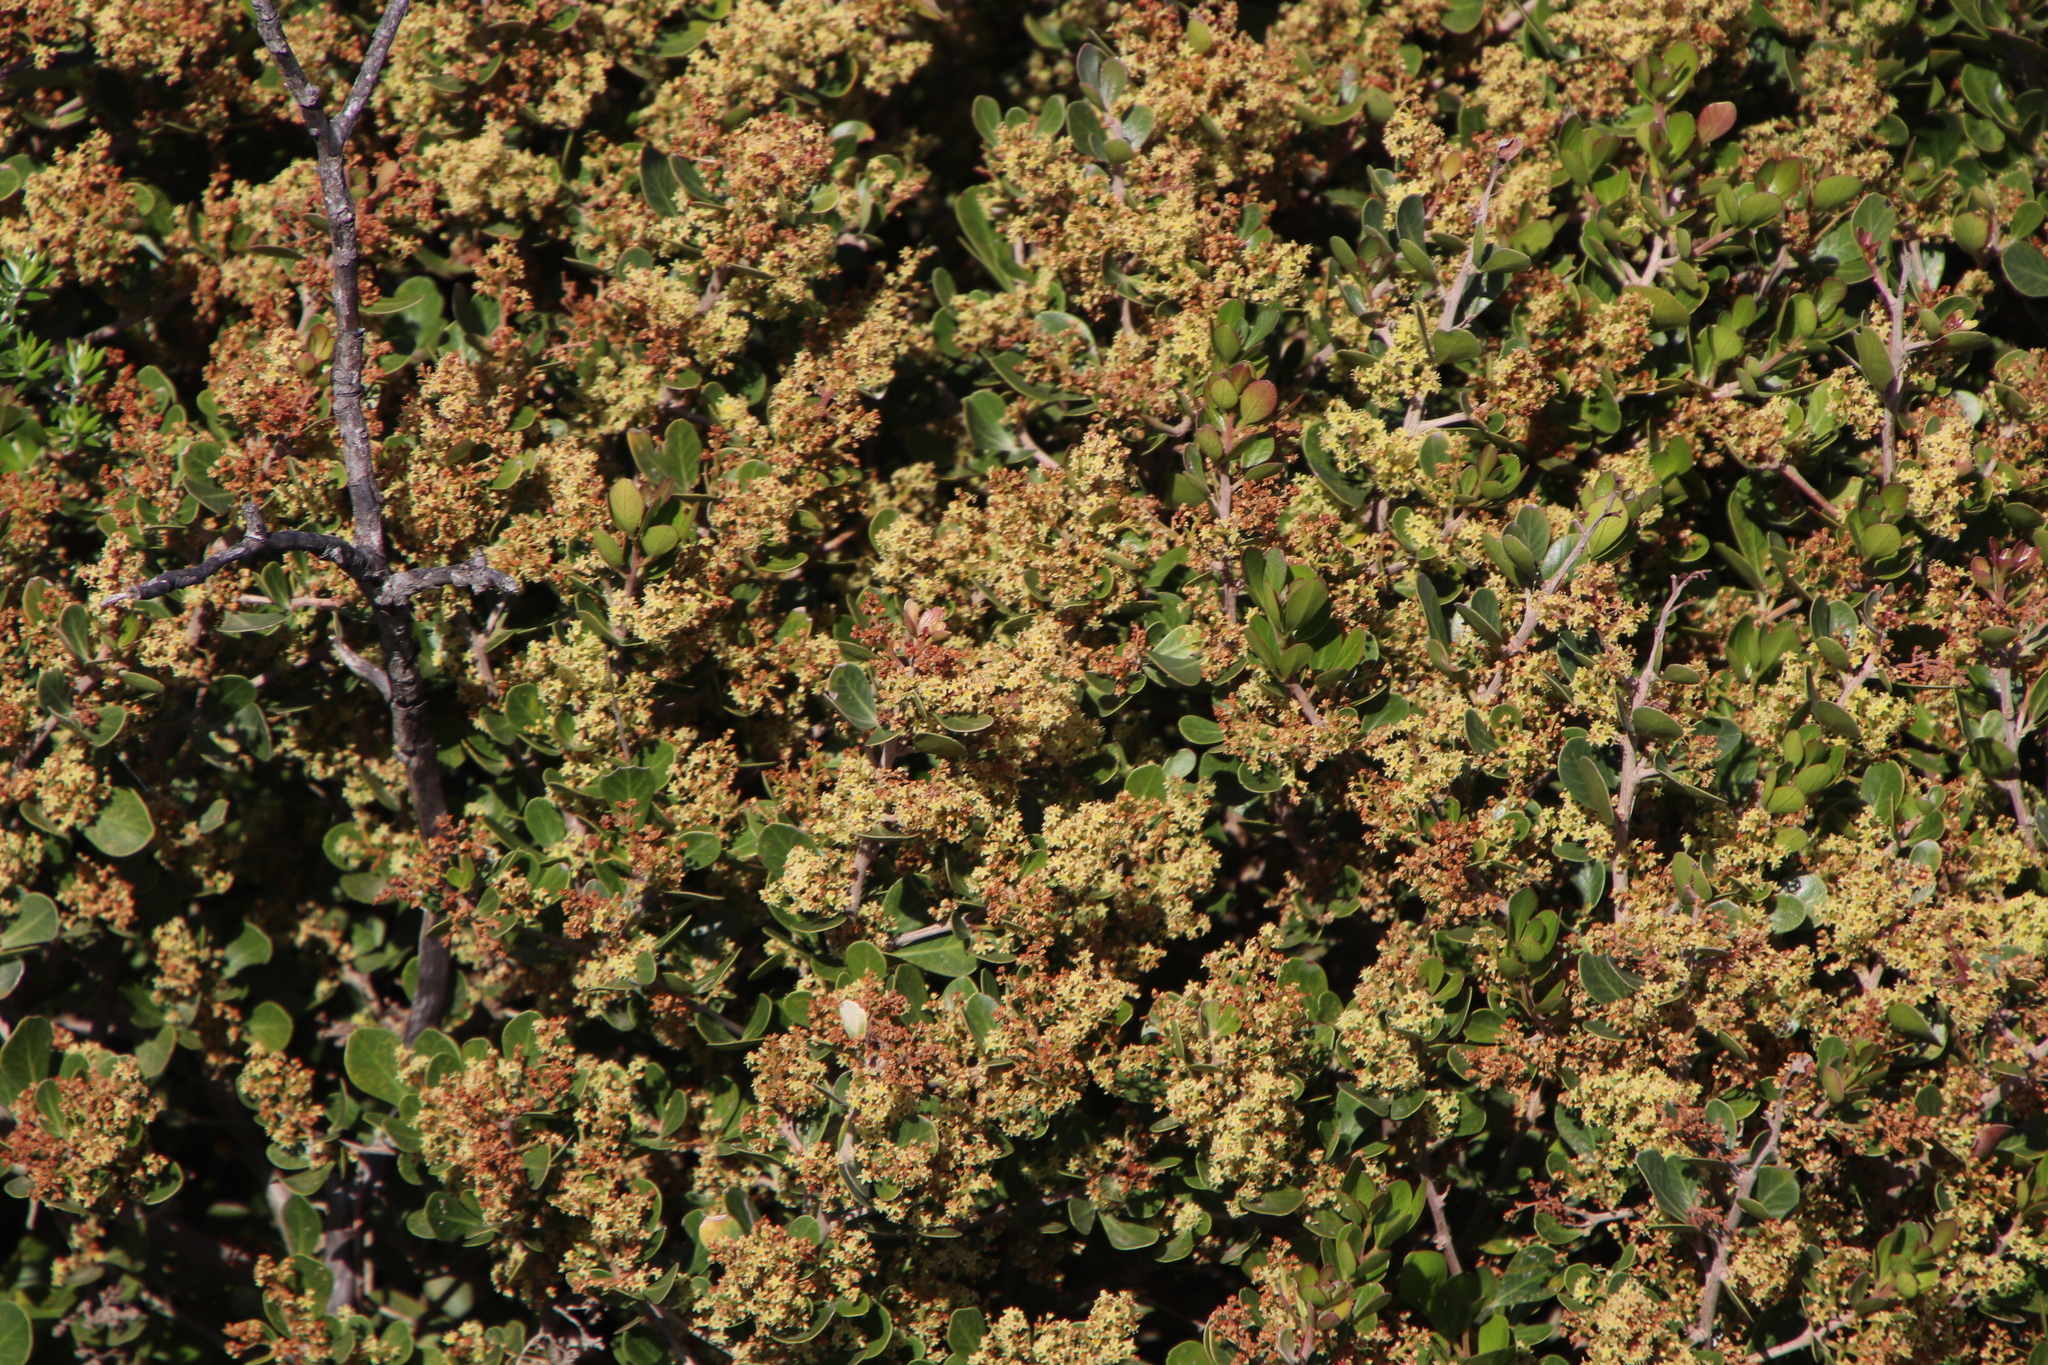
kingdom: Plantae
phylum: Tracheophyta
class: Magnoliopsida
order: Sapindales
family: Anacardiaceae
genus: Searsia
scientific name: Searsia lucida
